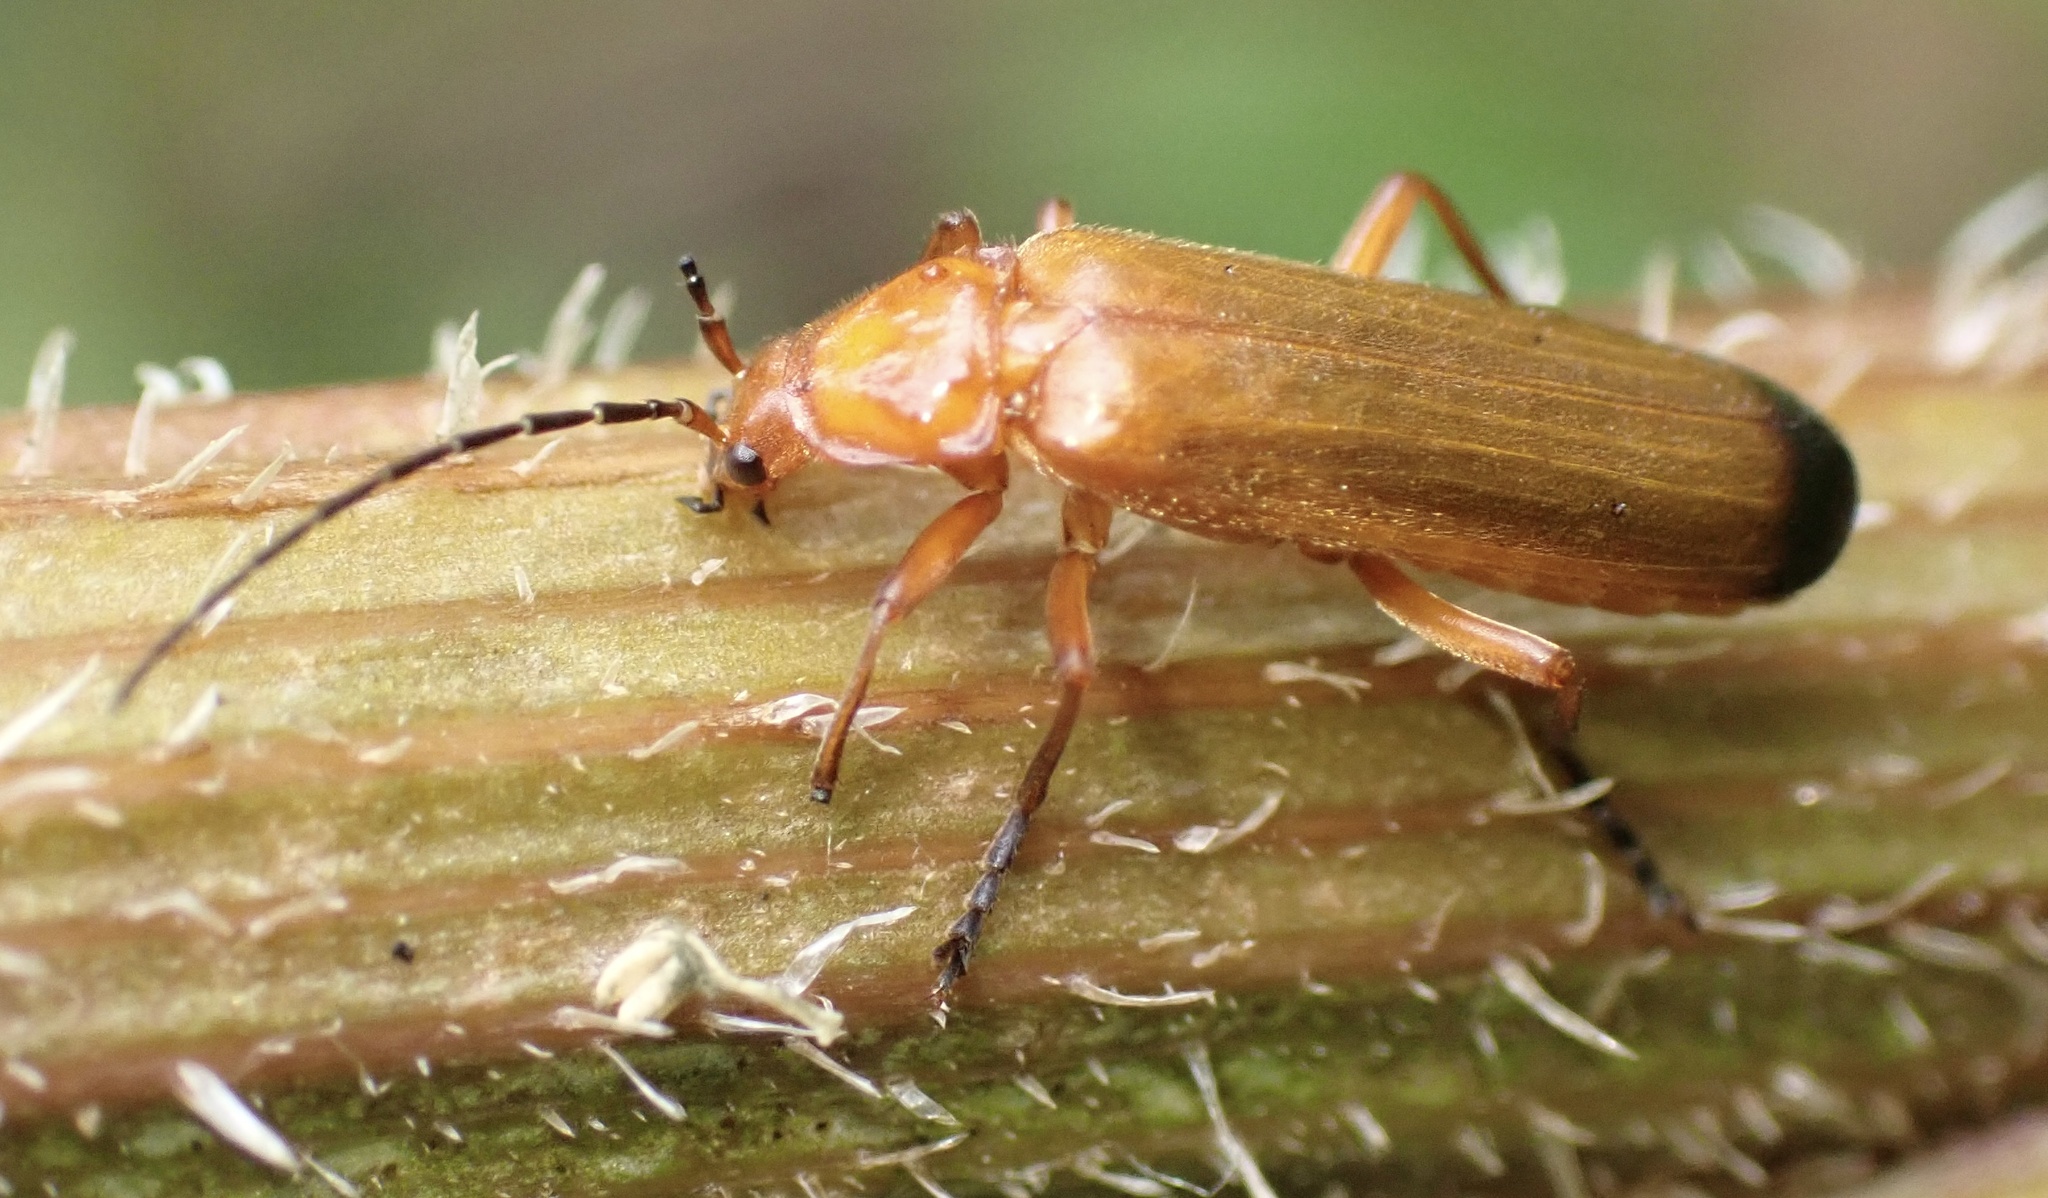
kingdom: Animalia
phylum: Arthropoda
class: Insecta
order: Coleoptera
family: Cantharidae
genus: Rhagonycha
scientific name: Rhagonycha fulva
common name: Common red soldier beetle
